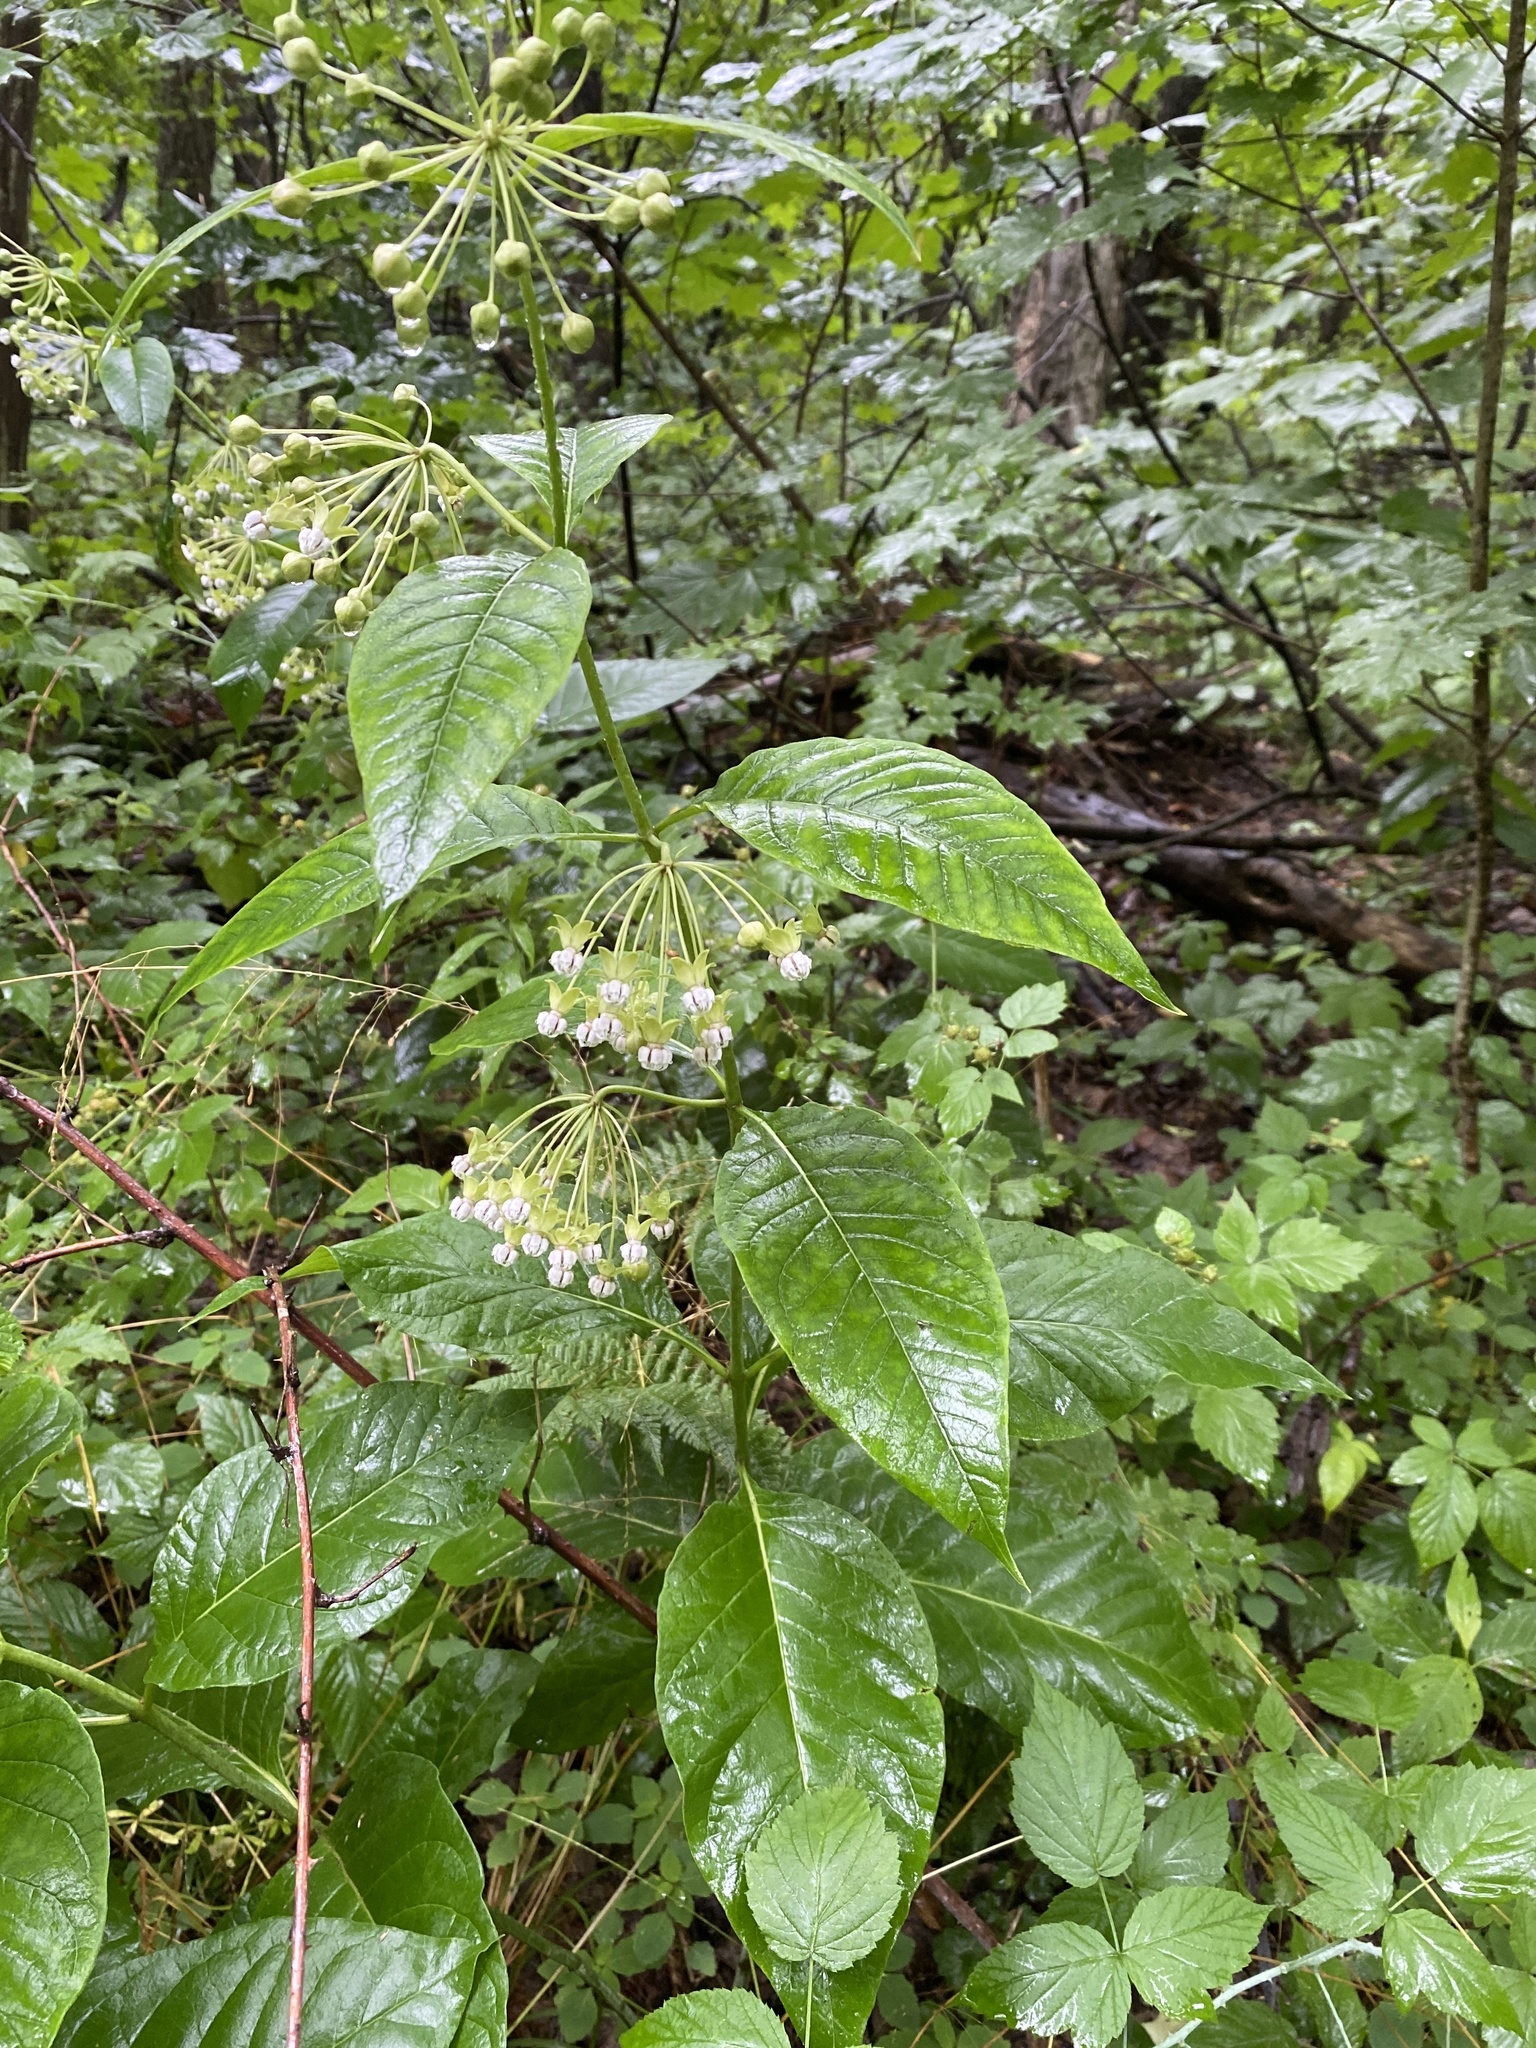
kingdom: Plantae
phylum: Tracheophyta
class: Magnoliopsida
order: Gentianales
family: Apocynaceae
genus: Asclepias
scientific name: Asclepias exaltata
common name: Poke milkweed
